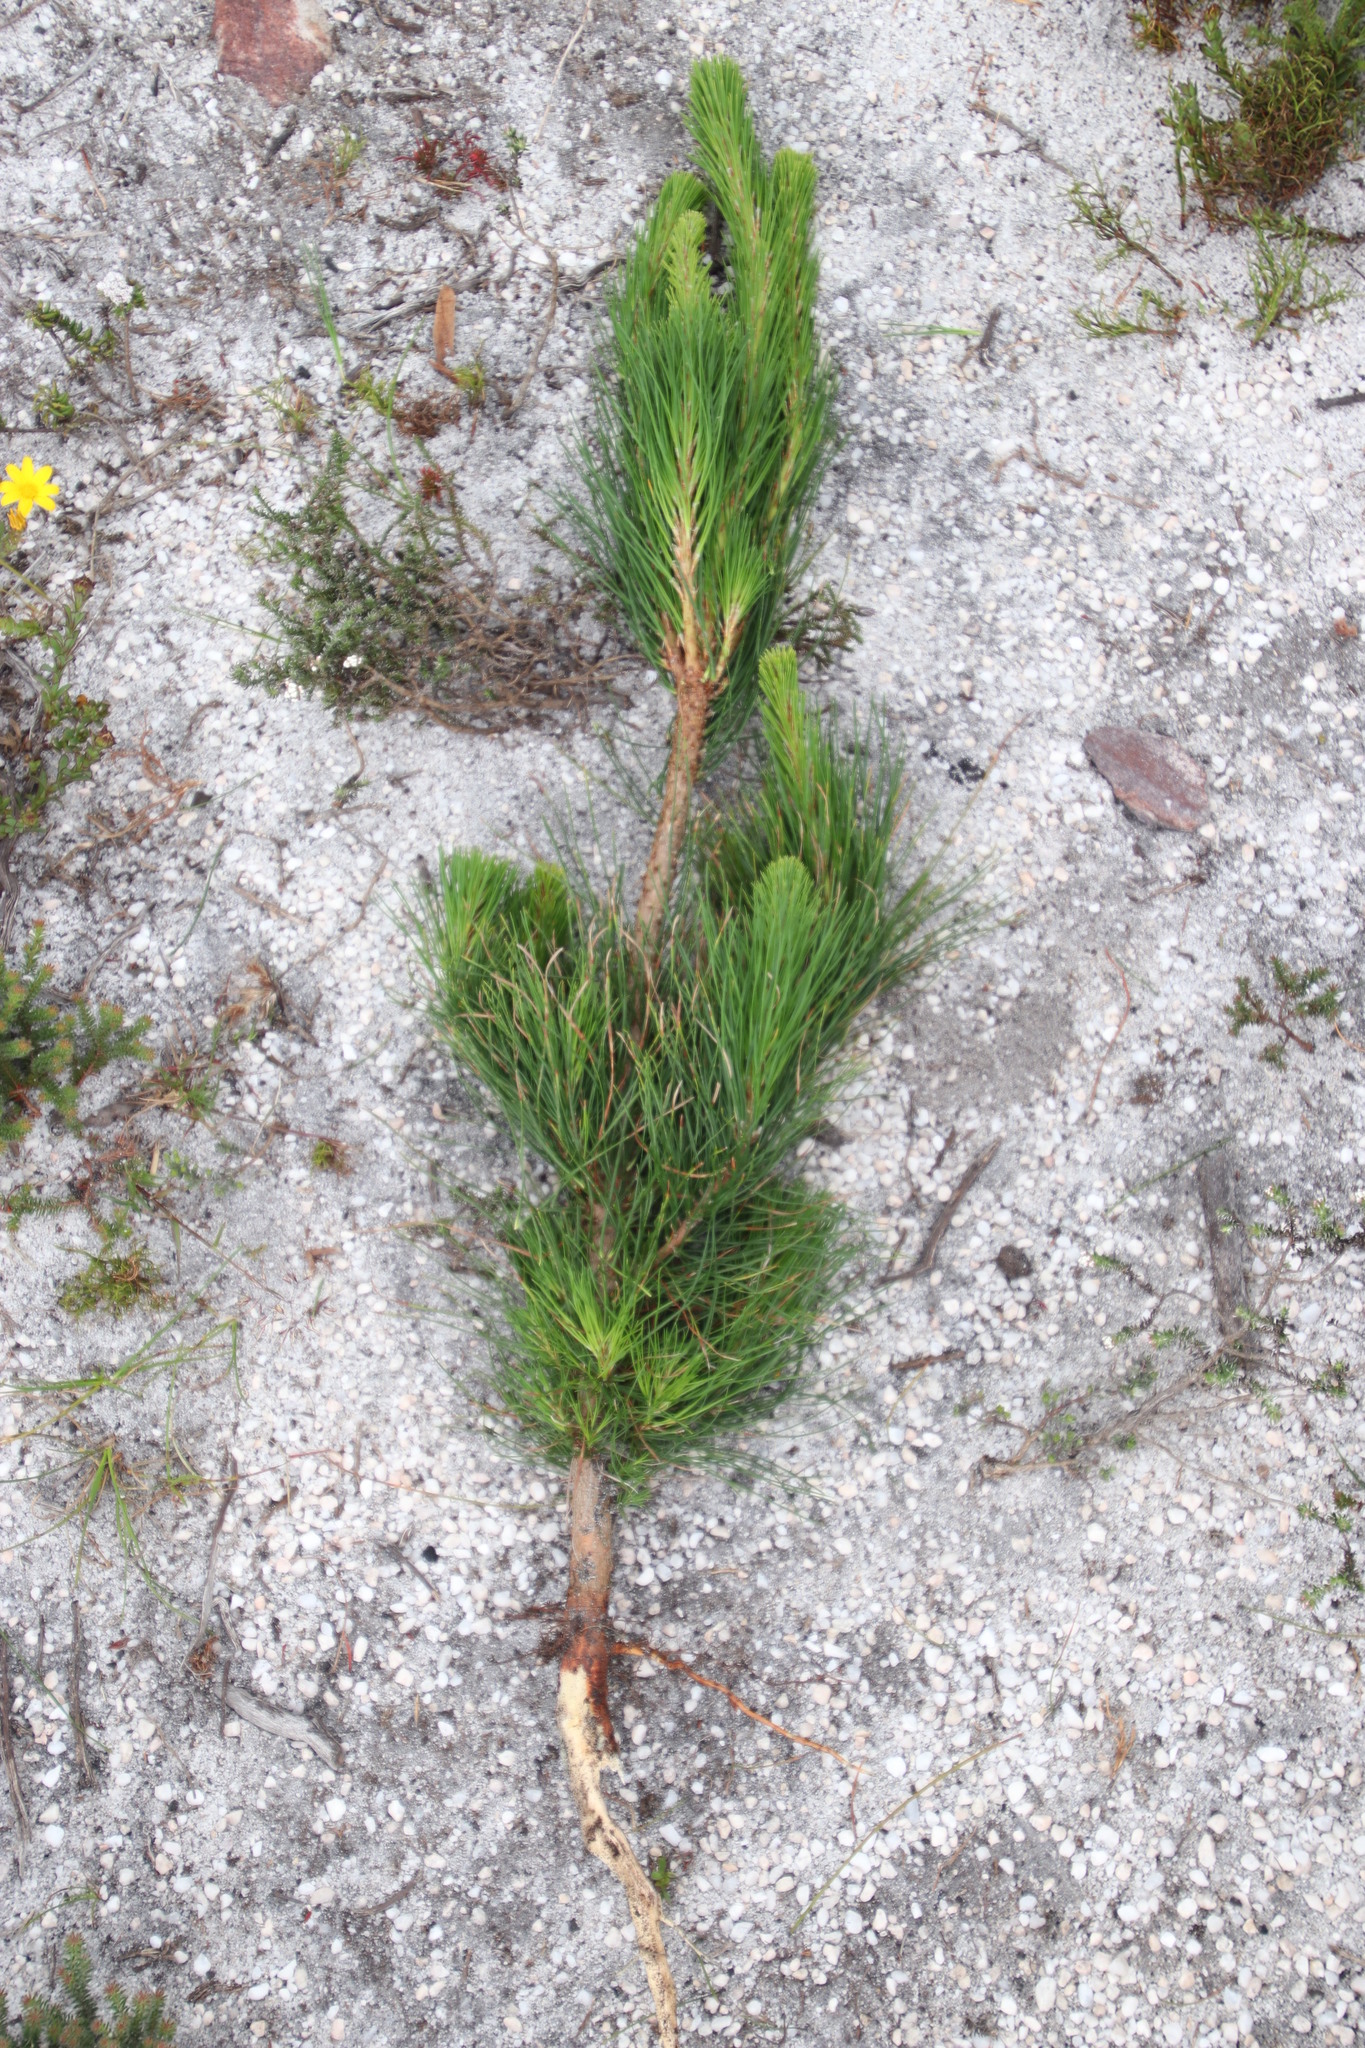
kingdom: Plantae
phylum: Tracheophyta
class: Pinopsida
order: Pinales
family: Pinaceae
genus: Pinus
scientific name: Pinus radiata
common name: Monterey pine
